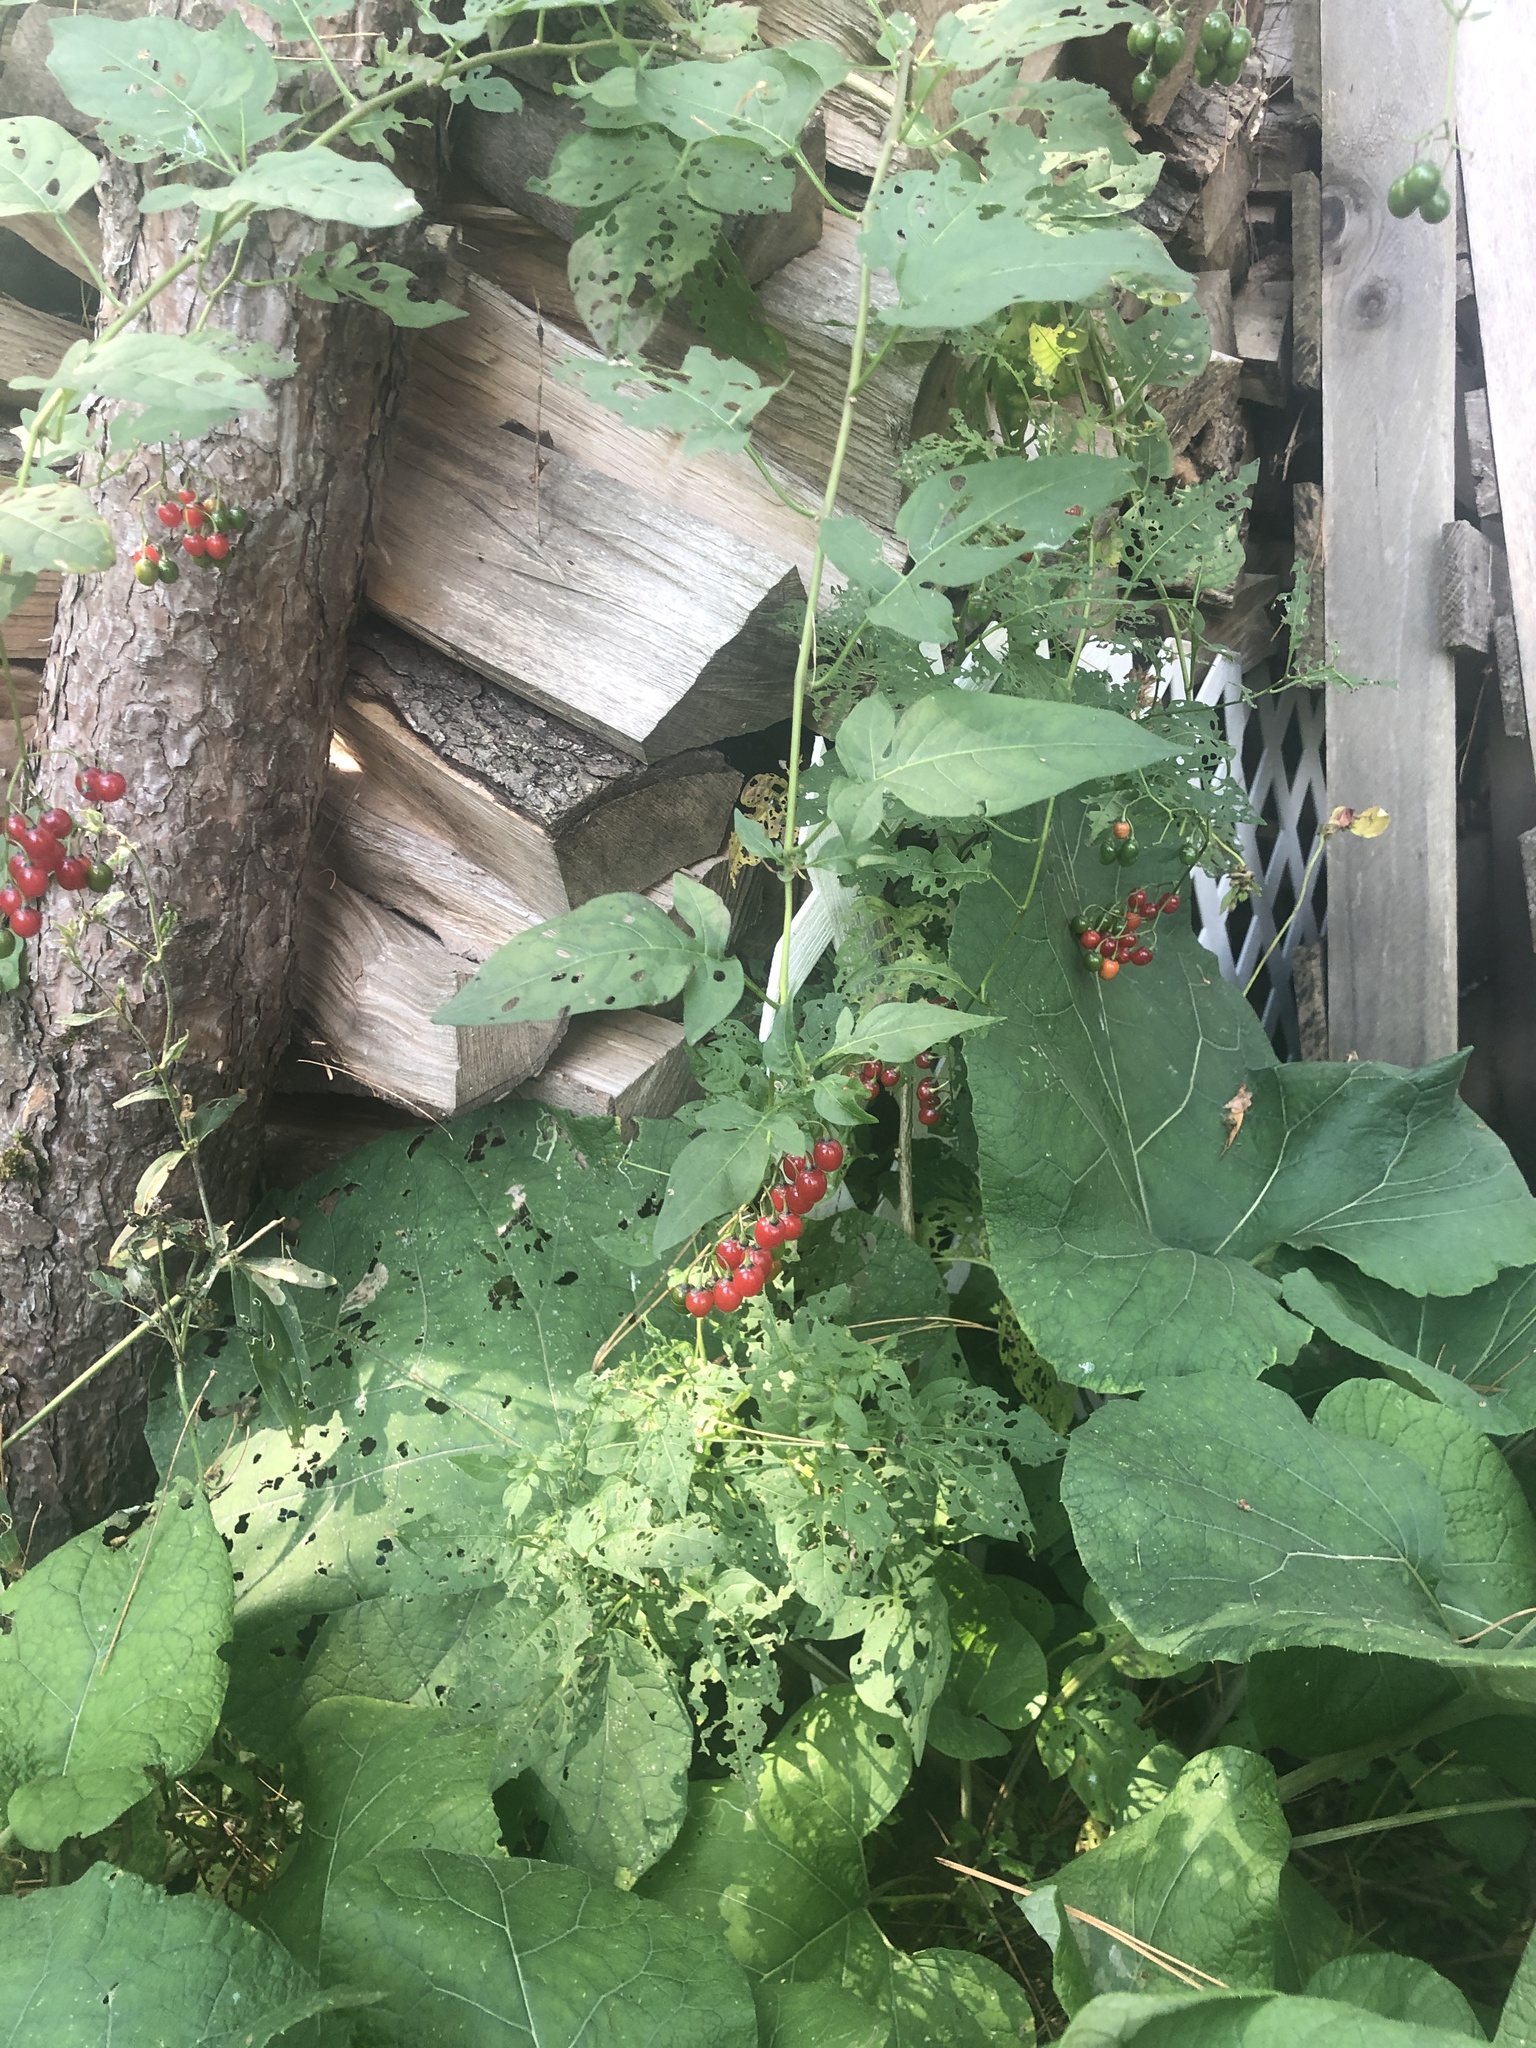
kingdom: Plantae
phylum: Tracheophyta
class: Magnoliopsida
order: Solanales
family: Solanaceae
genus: Solanum
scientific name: Solanum dulcamara
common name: Climbing nightshade
